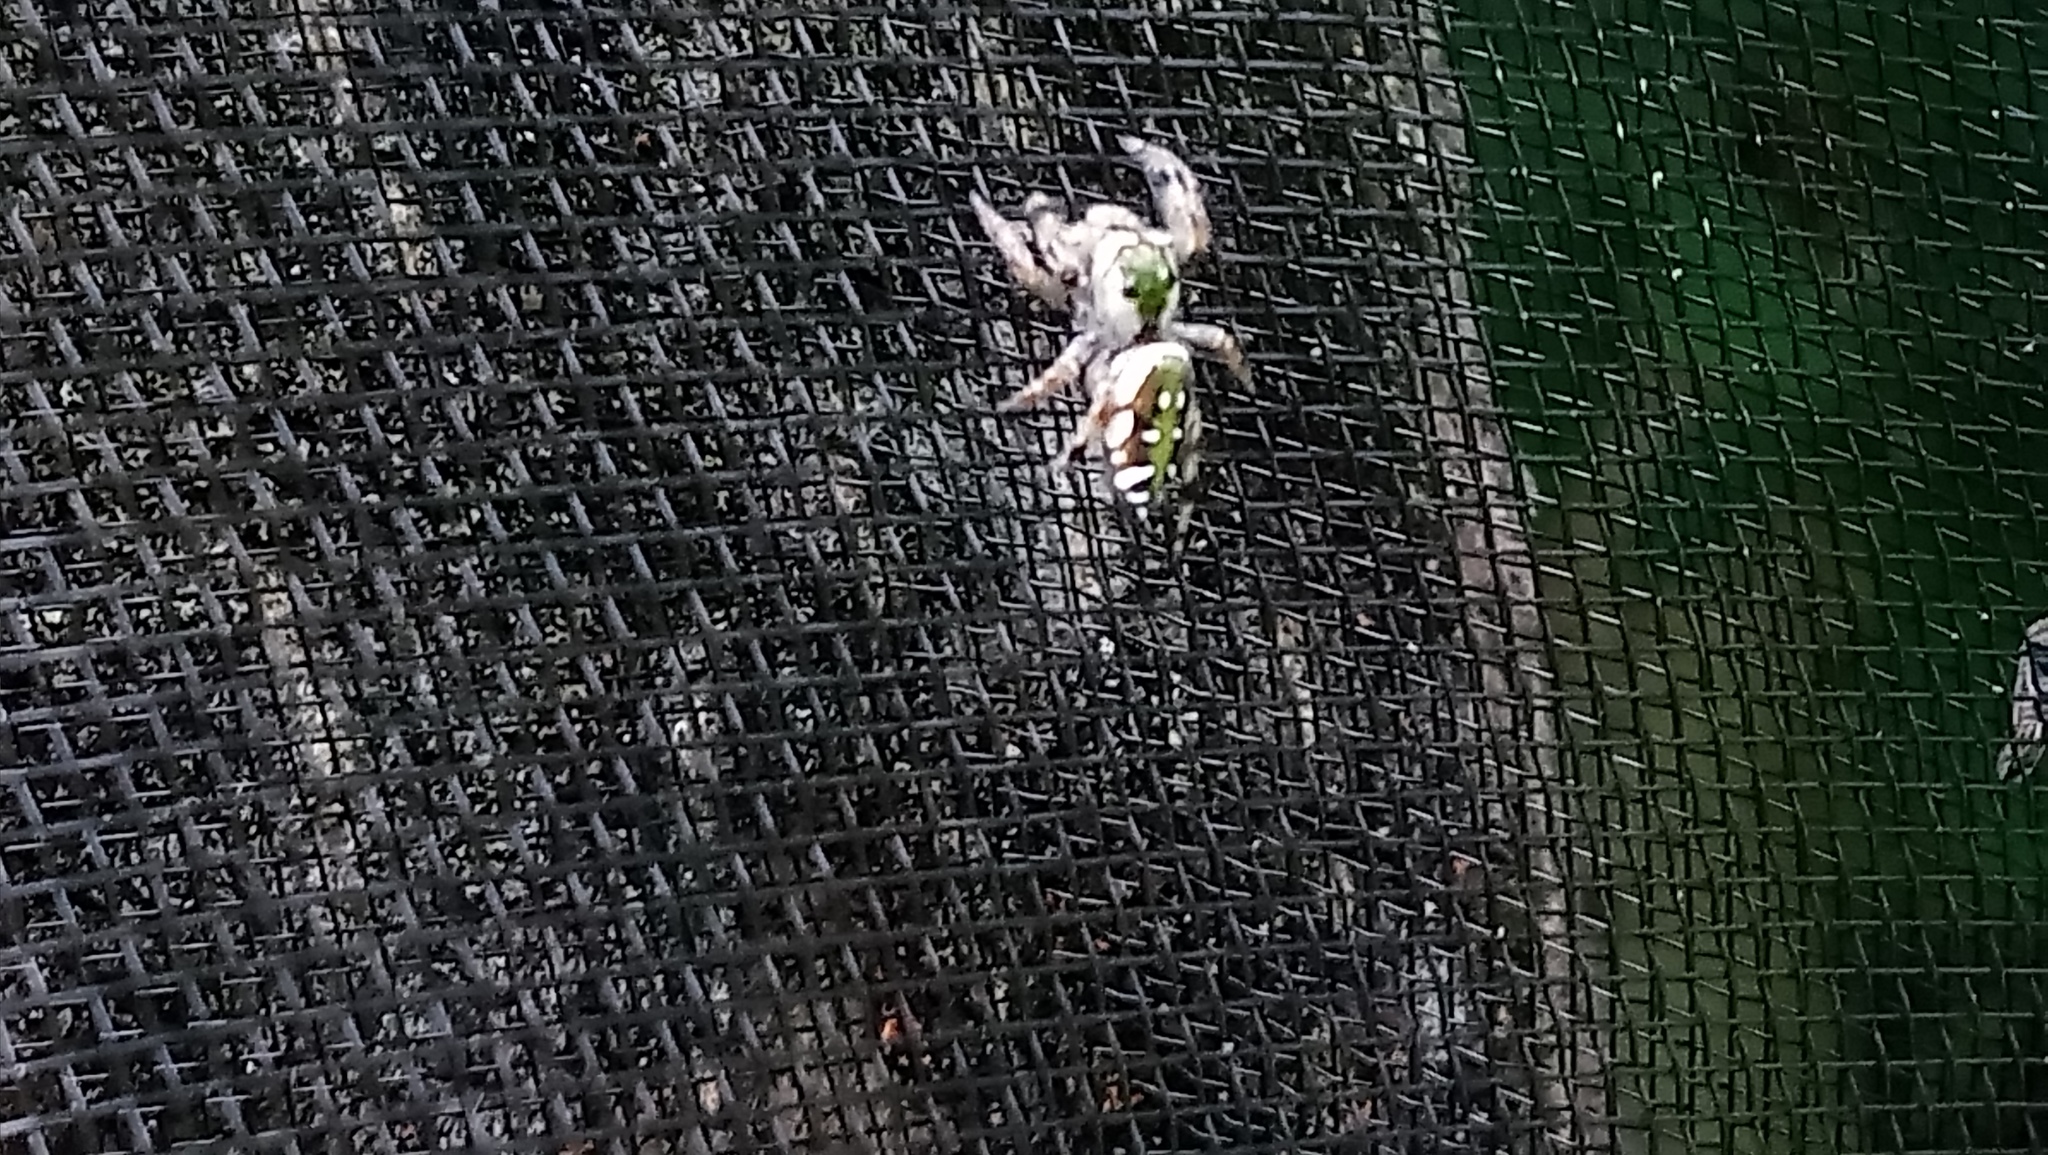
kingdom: Animalia
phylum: Arthropoda
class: Arachnida
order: Araneae
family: Salticidae
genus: Paraphidippus
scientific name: Paraphidippus aurantius
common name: Jumping spiders
